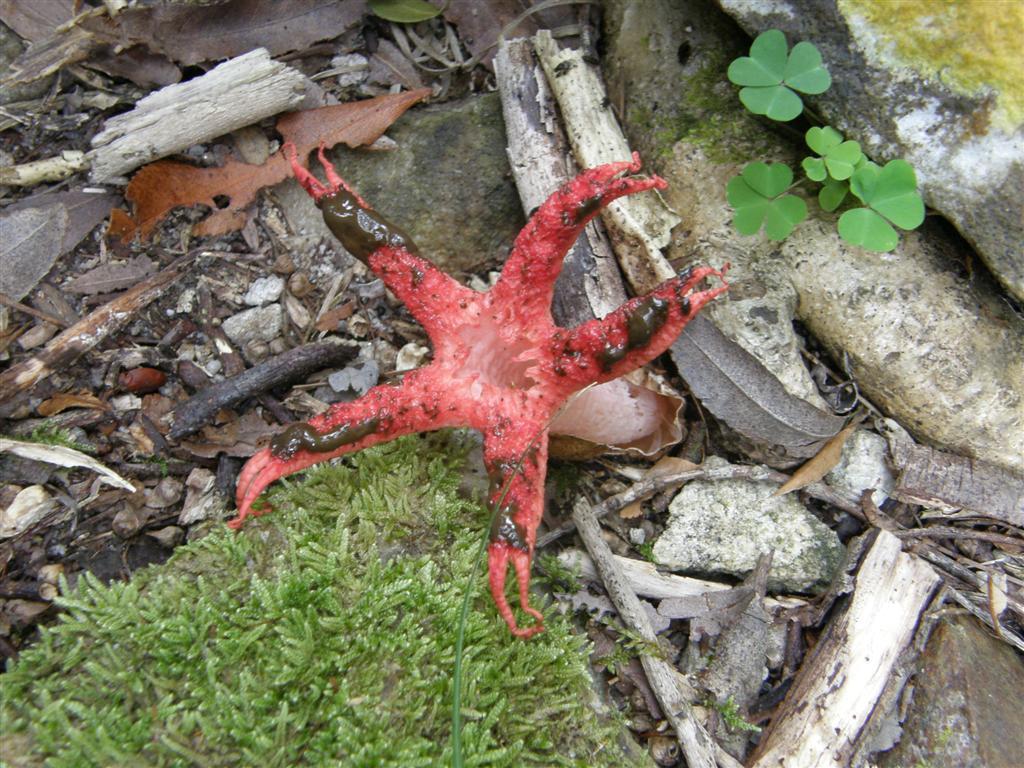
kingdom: Fungi
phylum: Basidiomycota
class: Agaricomycetes
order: Phallales
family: Phallaceae
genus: Clathrus
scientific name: Clathrus archeri
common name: Devil's fingers
